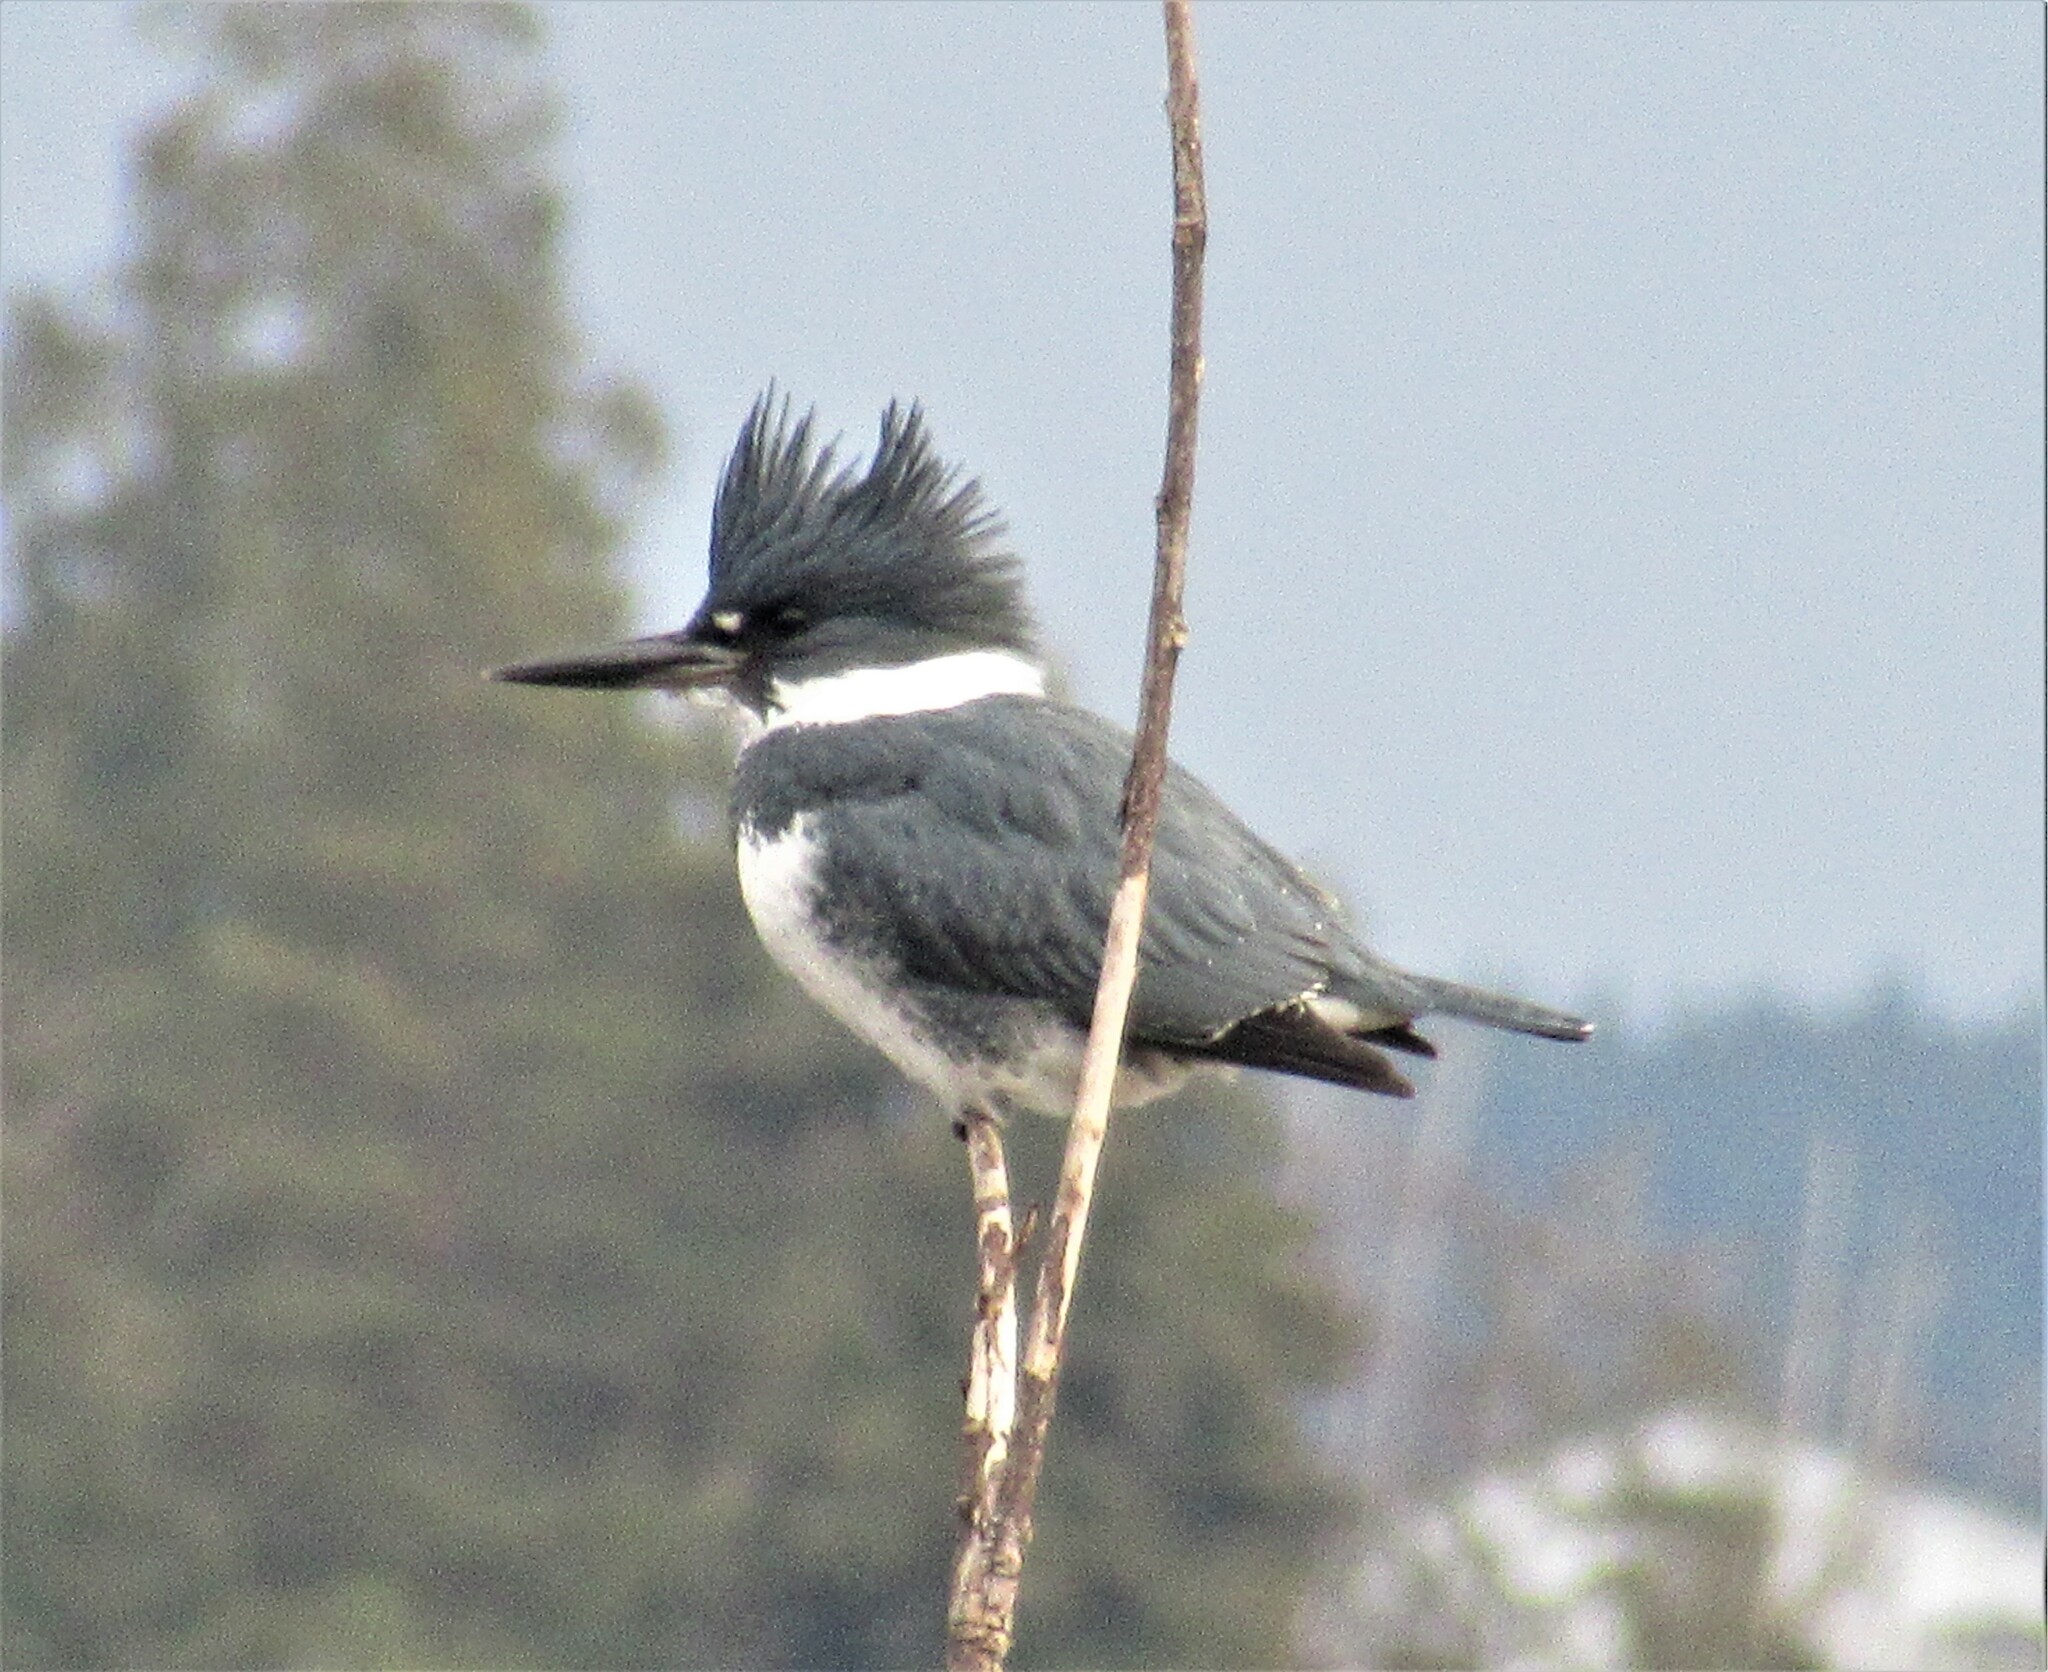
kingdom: Animalia
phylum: Chordata
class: Aves
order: Coraciiformes
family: Alcedinidae
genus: Megaceryle
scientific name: Megaceryle alcyon
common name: Belted kingfisher
